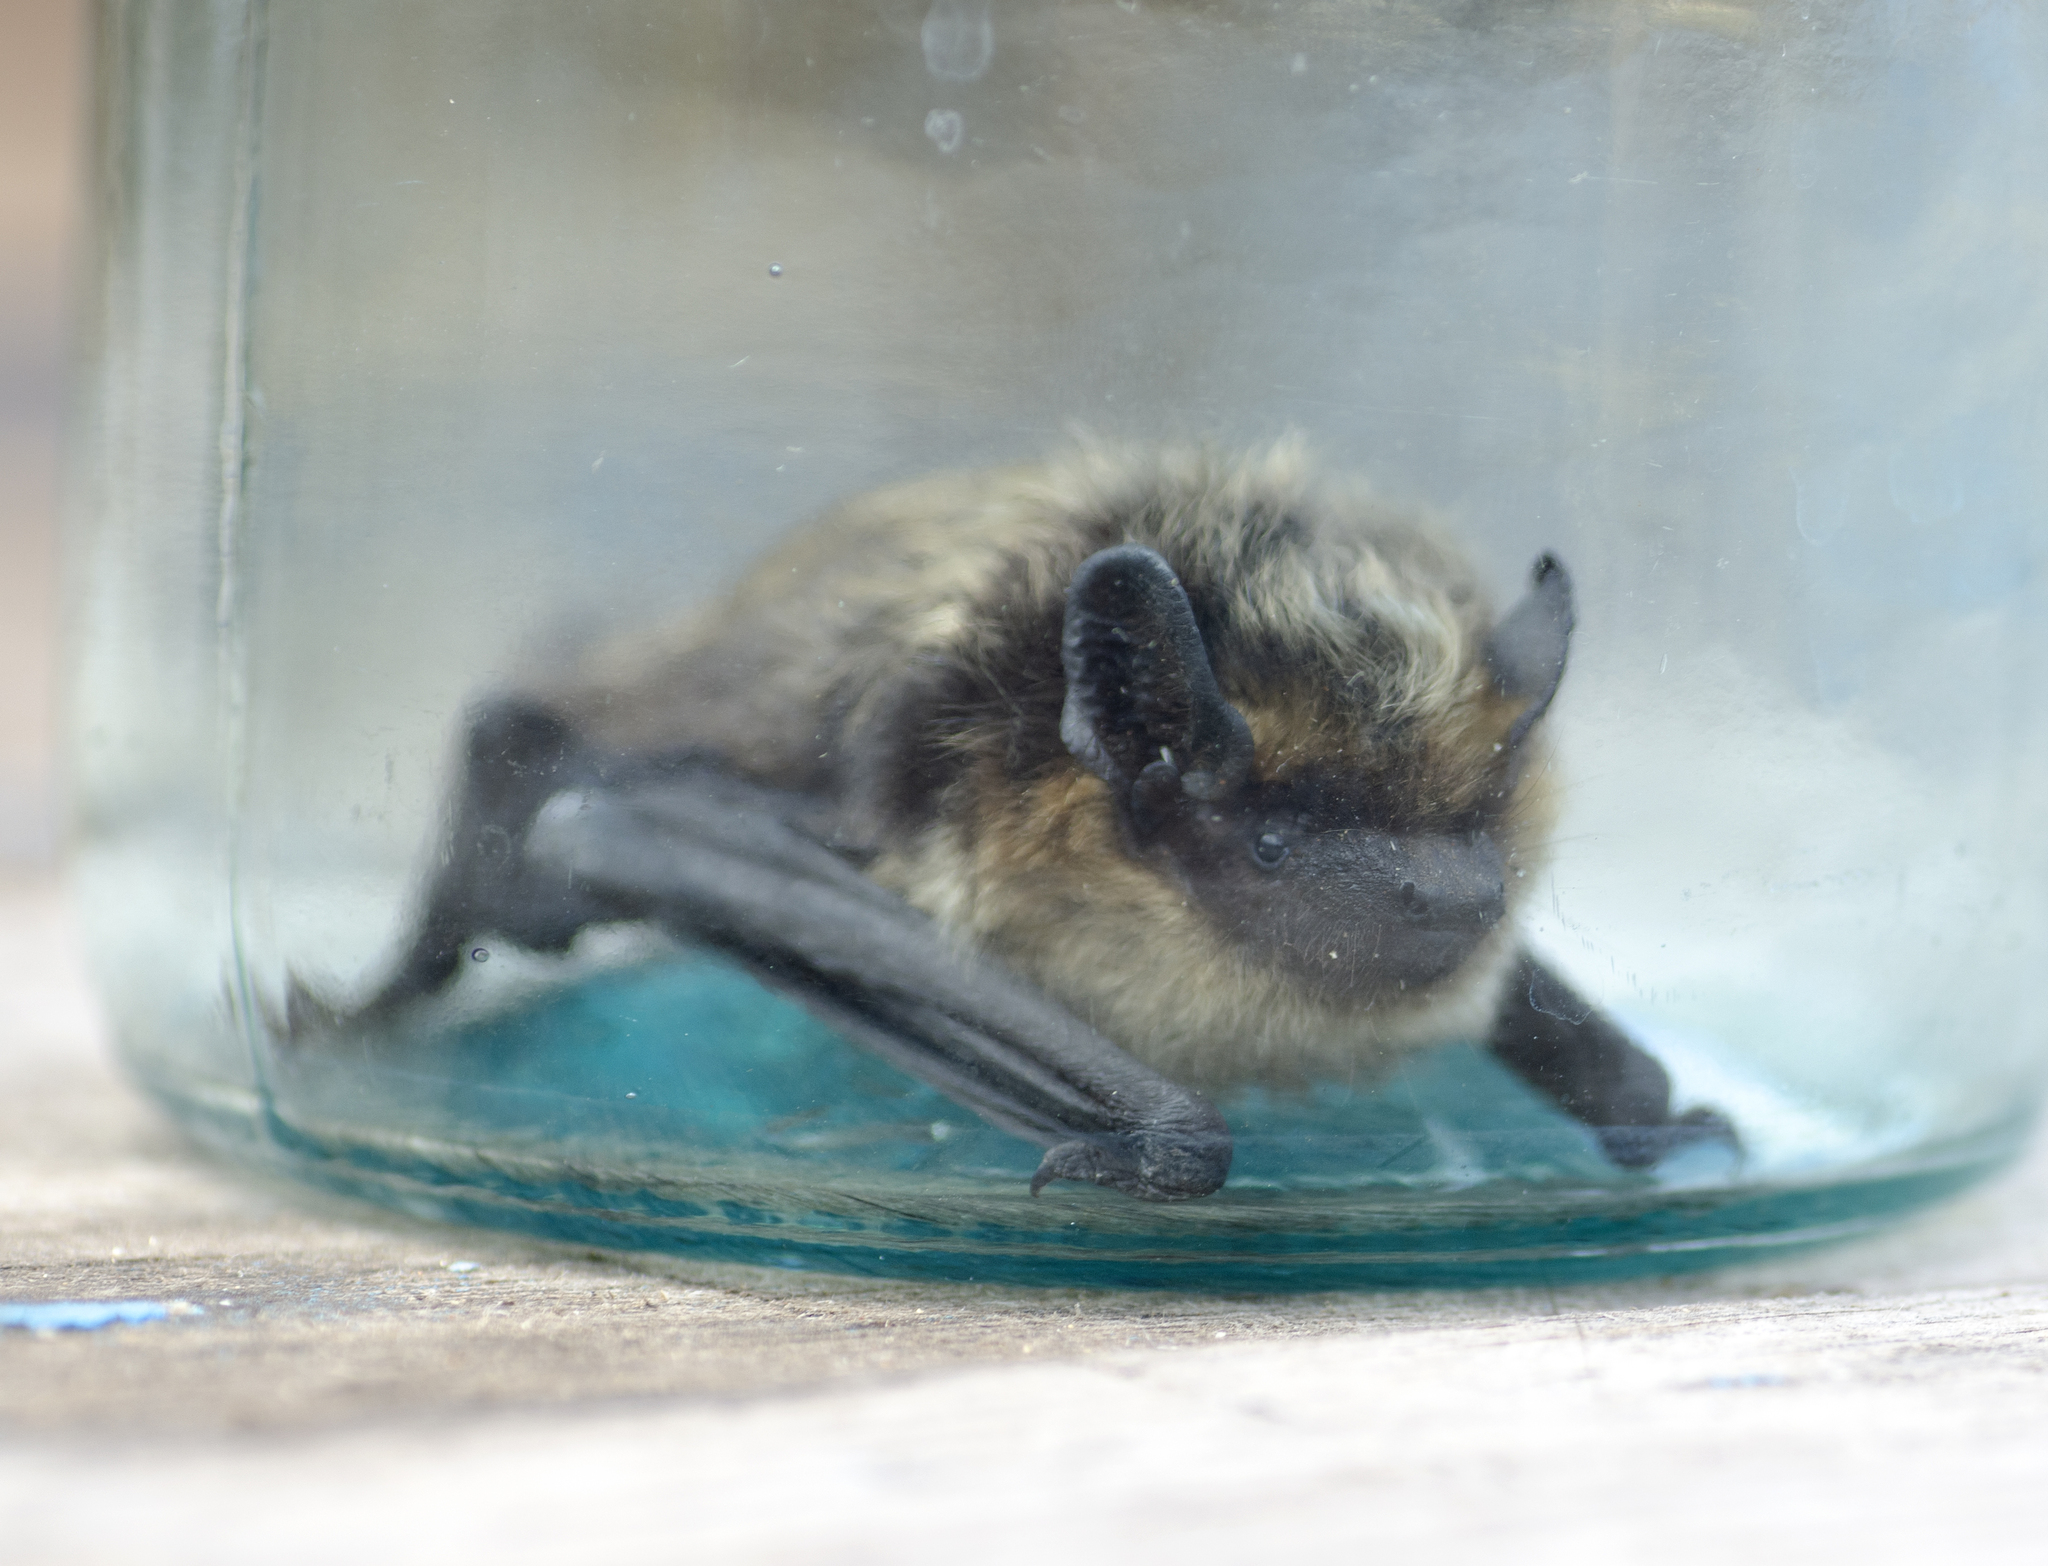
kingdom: Animalia
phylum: Chordata
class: Mammalia
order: Chiroptera
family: Vespertilionidae
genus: Eptesicus
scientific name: Eptesicus nilssonii
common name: Northern bat
